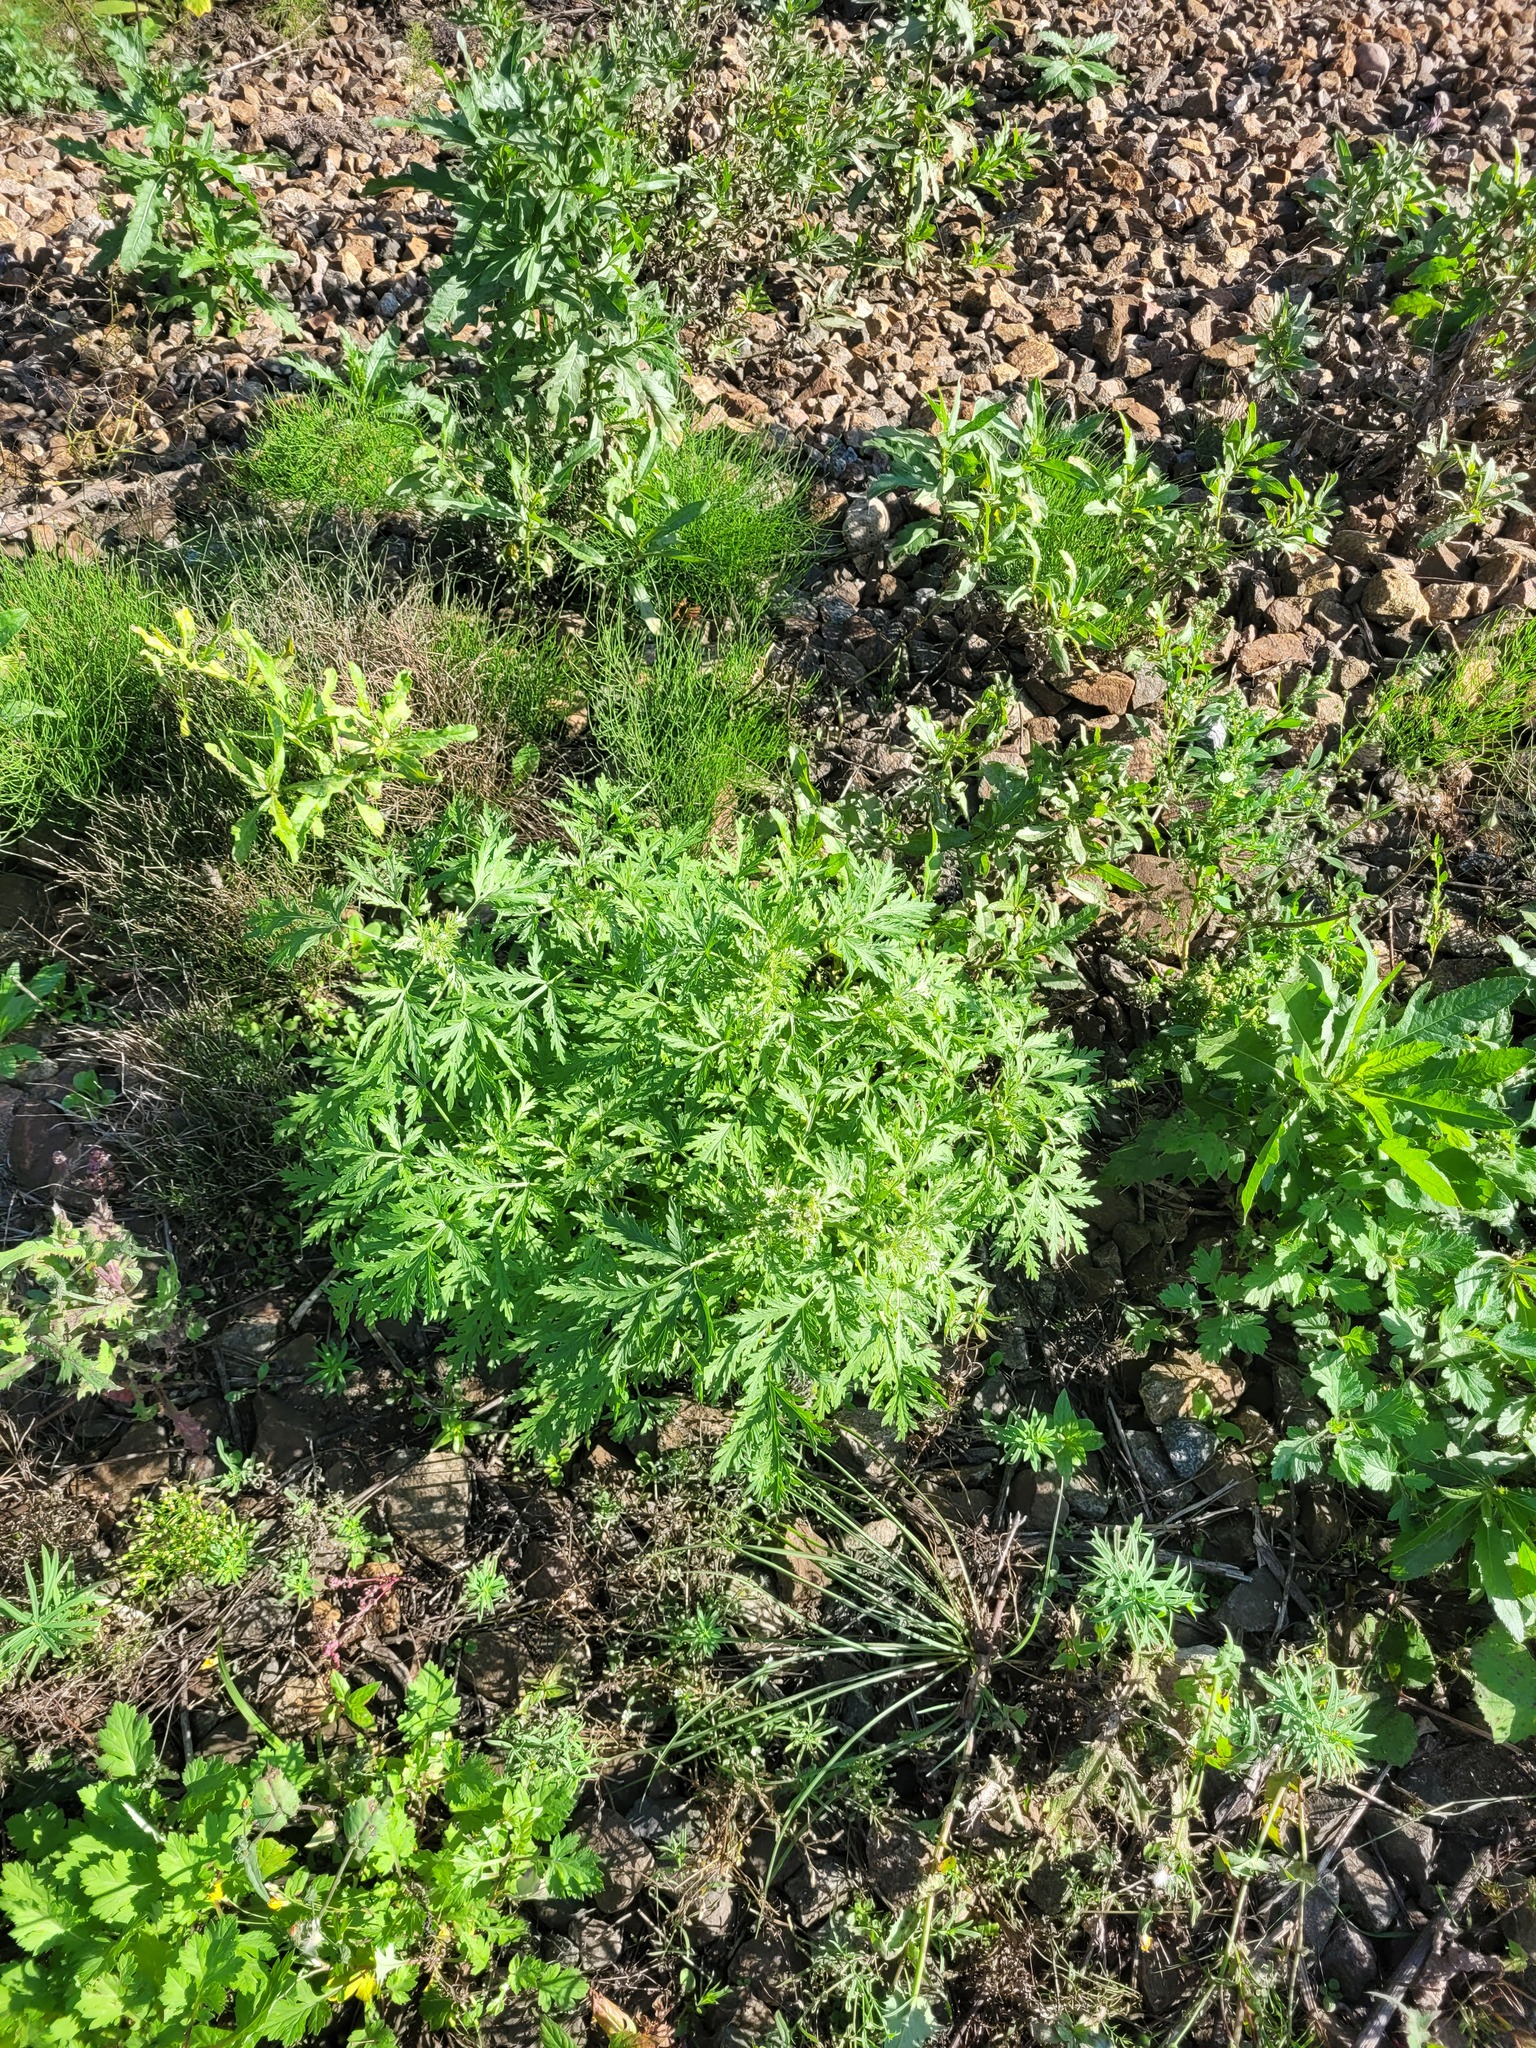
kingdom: Plantae
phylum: Tracheophyta
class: Magnoliopsida
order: Asterales
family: Asteraceae
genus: Artemisia
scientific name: Artemisia sieversiana
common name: Sieversian wormwood
